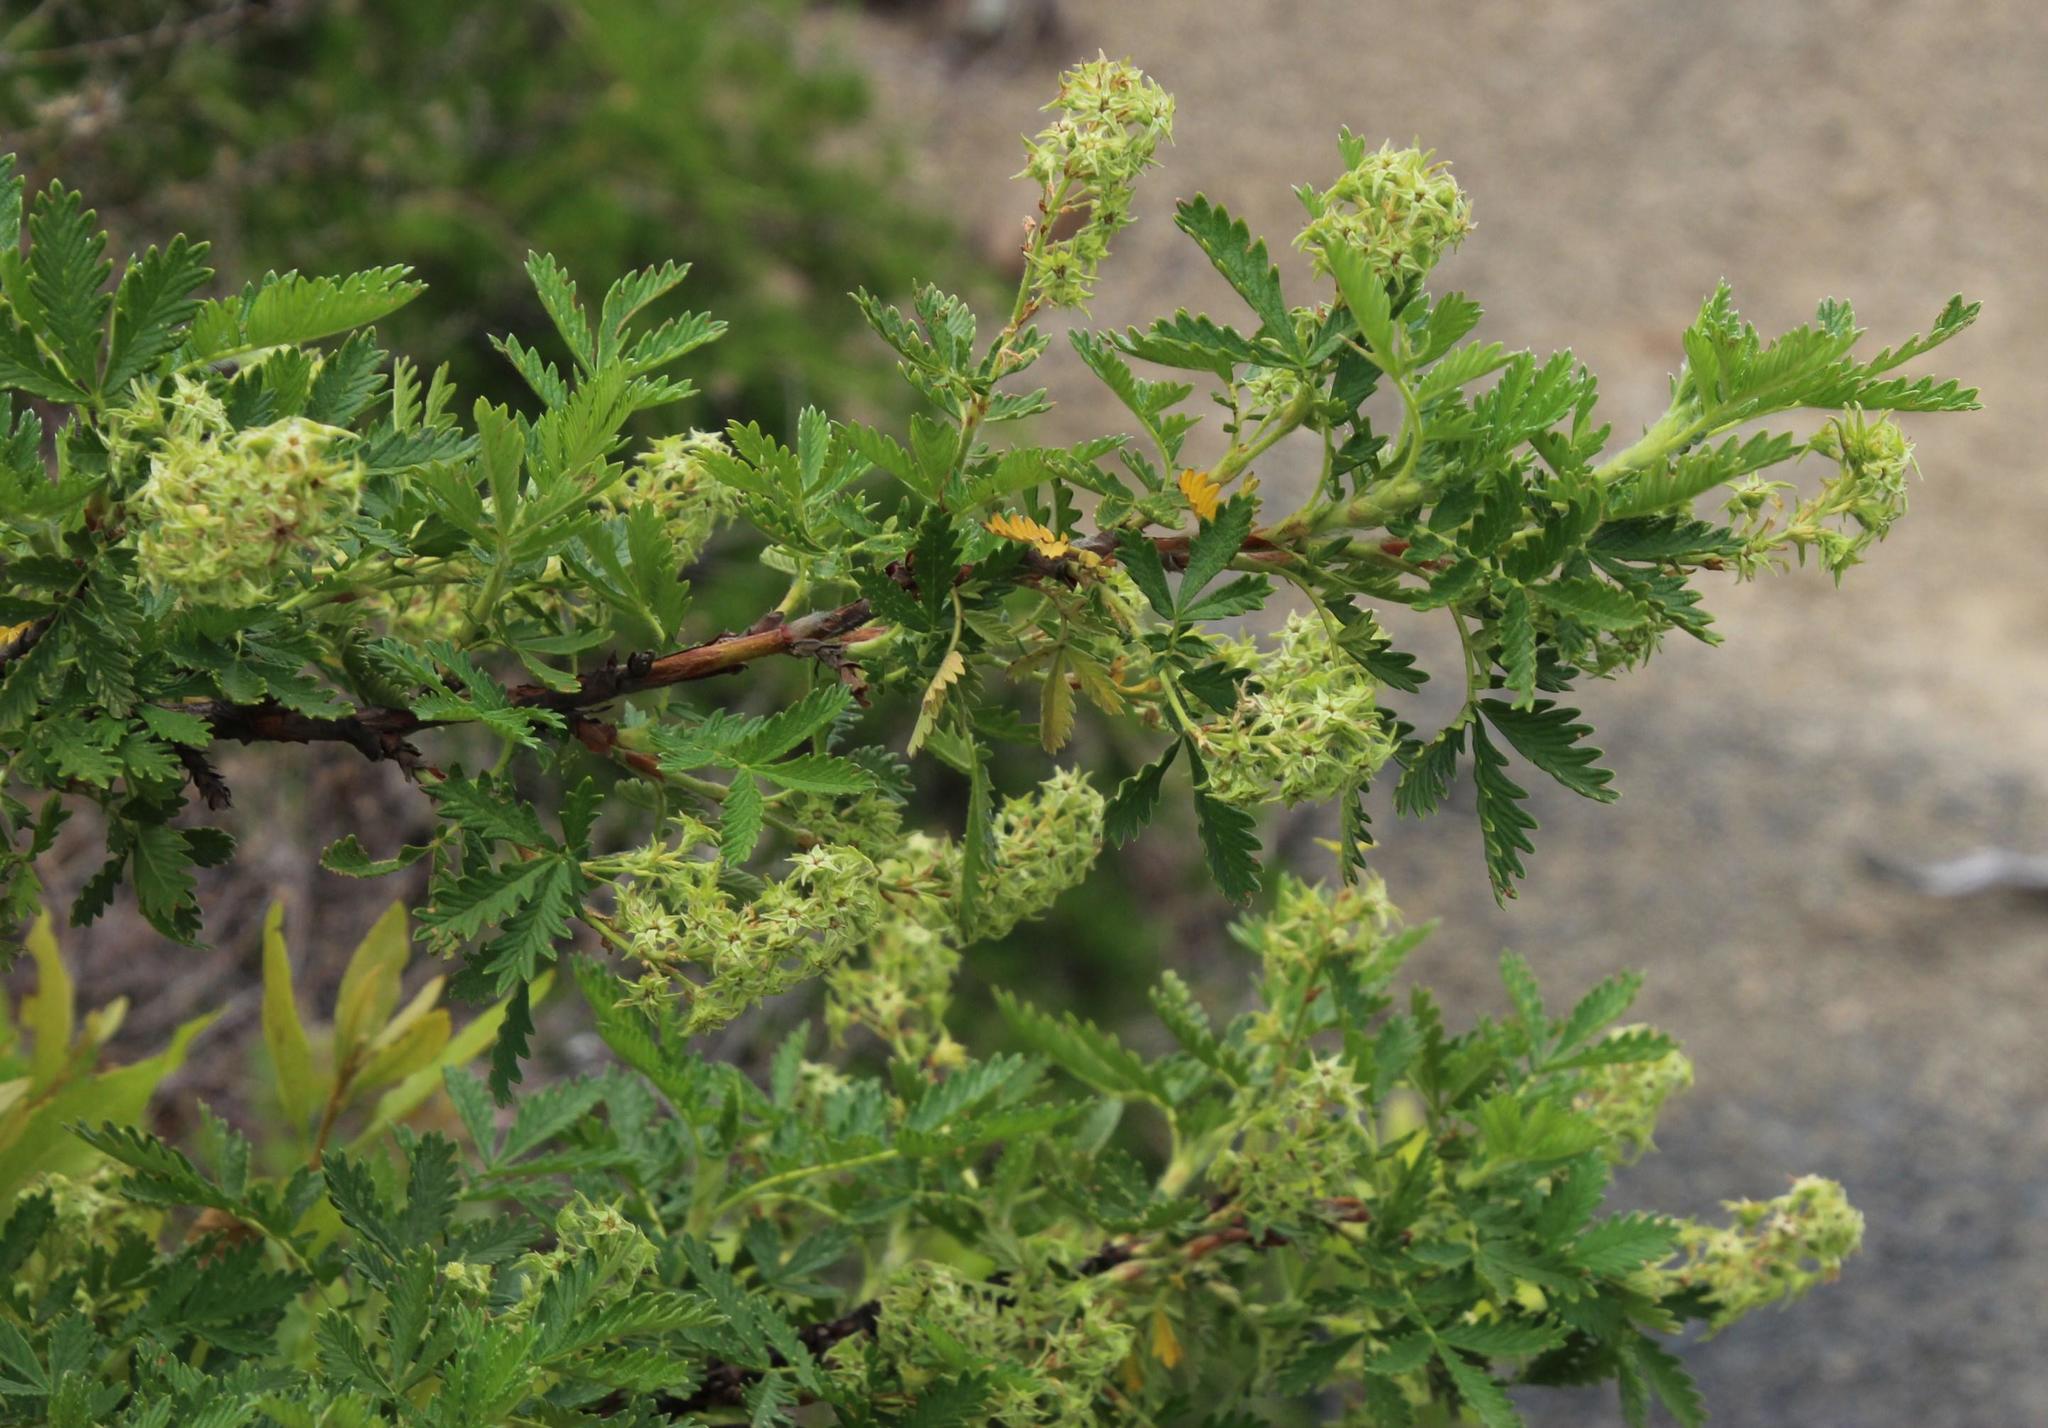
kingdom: Plantae
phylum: Tracheophyta
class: Magnoliopsida
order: Rosales
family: Rosaceae
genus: Leucosidea
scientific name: Leucosidea sericea
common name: Oldwood
